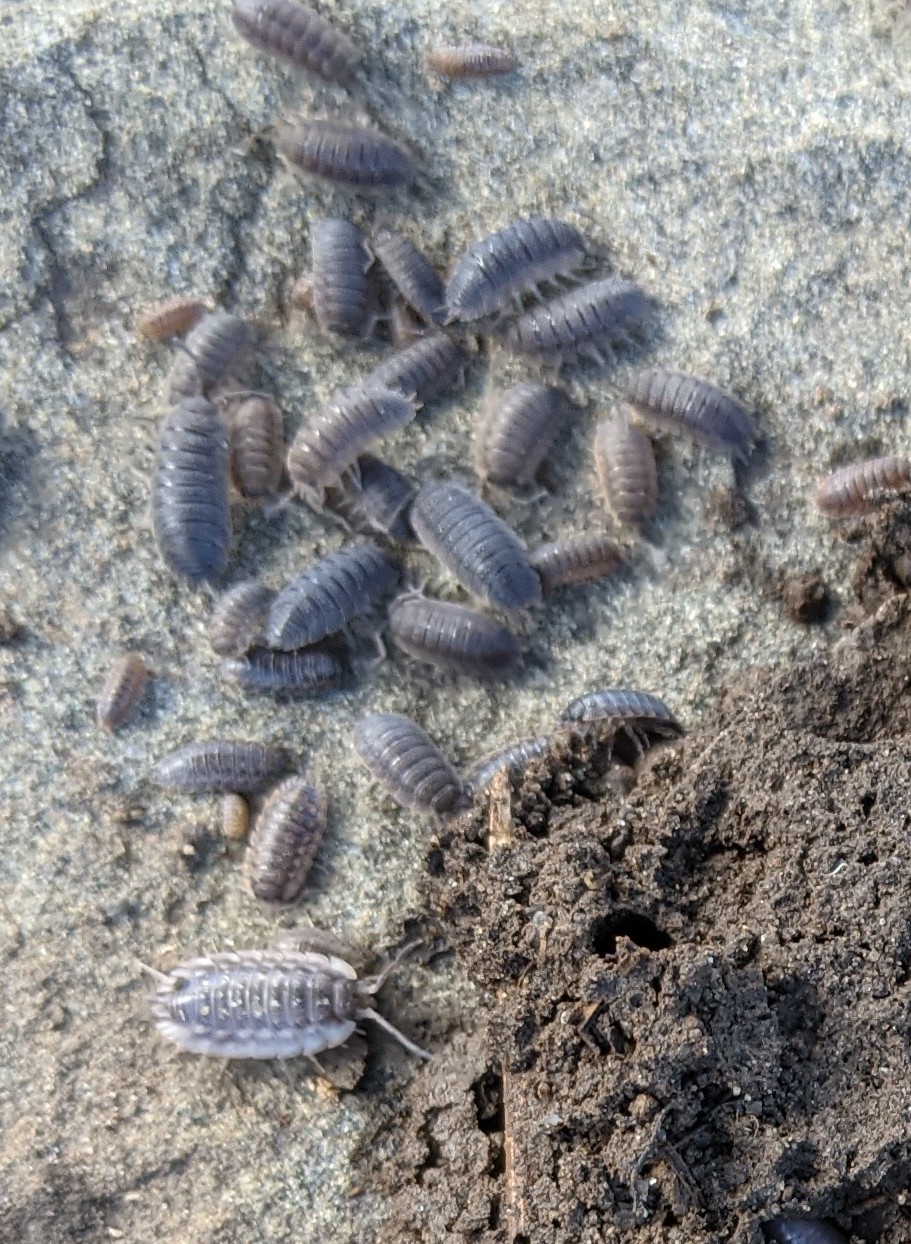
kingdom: Animalia
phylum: Arthropoda
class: Malacostraca
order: Isopoda
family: Porcellionidae
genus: Porcellio
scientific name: Porcellio scaber
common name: Common rough woodlouse
